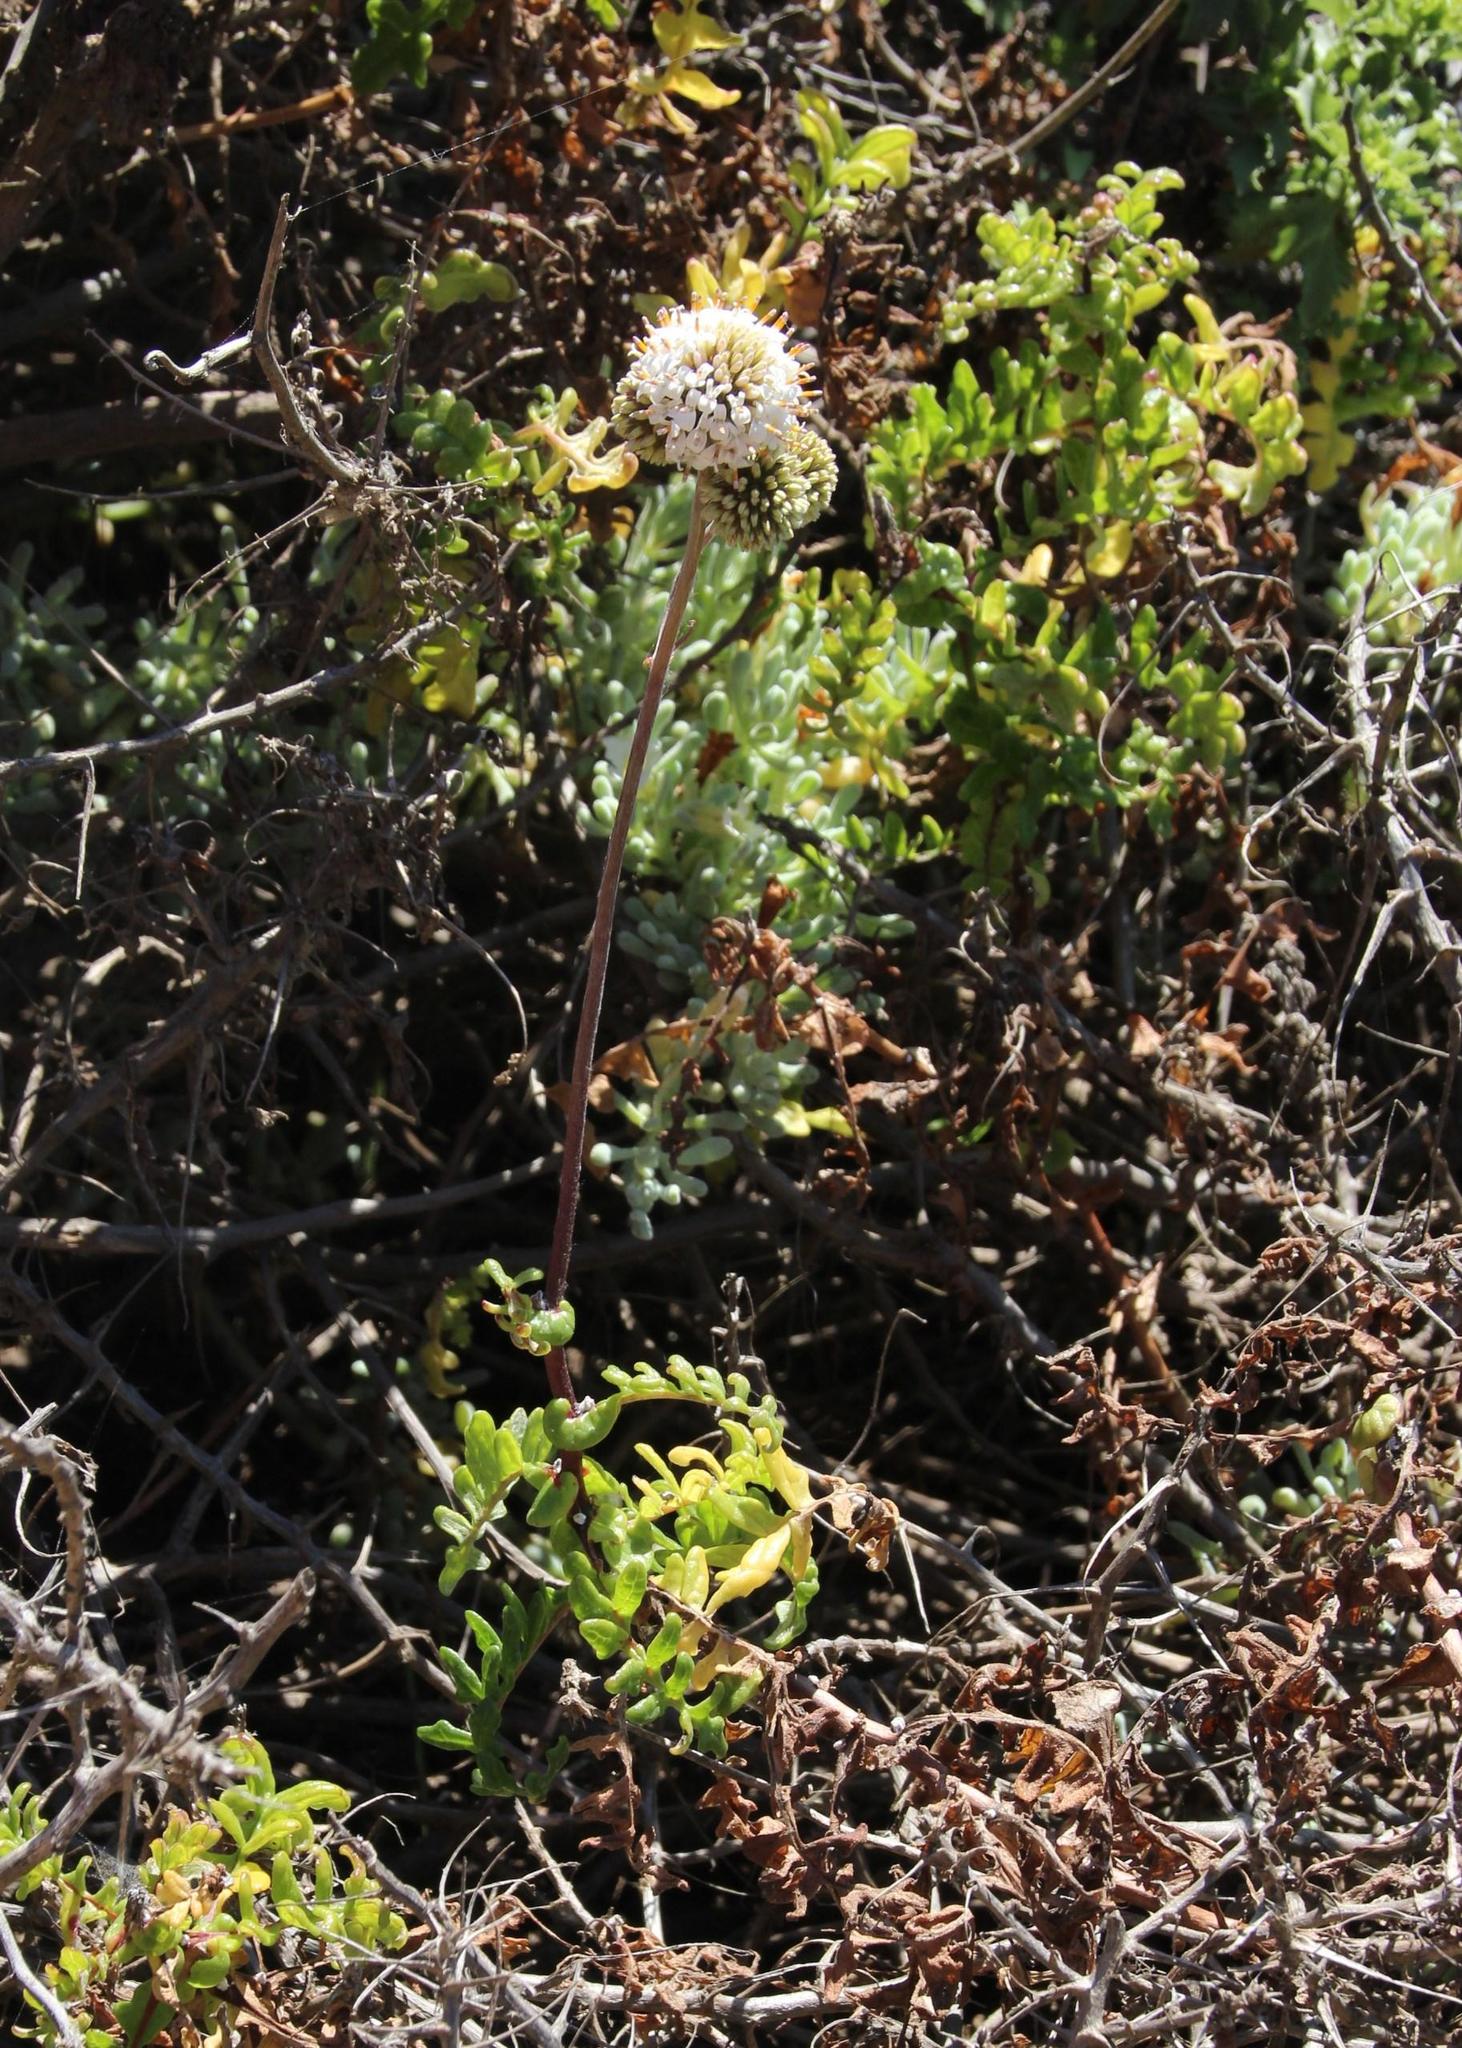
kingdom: Plantae
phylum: Tracheophyta
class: Magnoliopsida
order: Asterales
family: Asteraceae
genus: Polyachyrus
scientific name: Polyachyrus poeppigii
